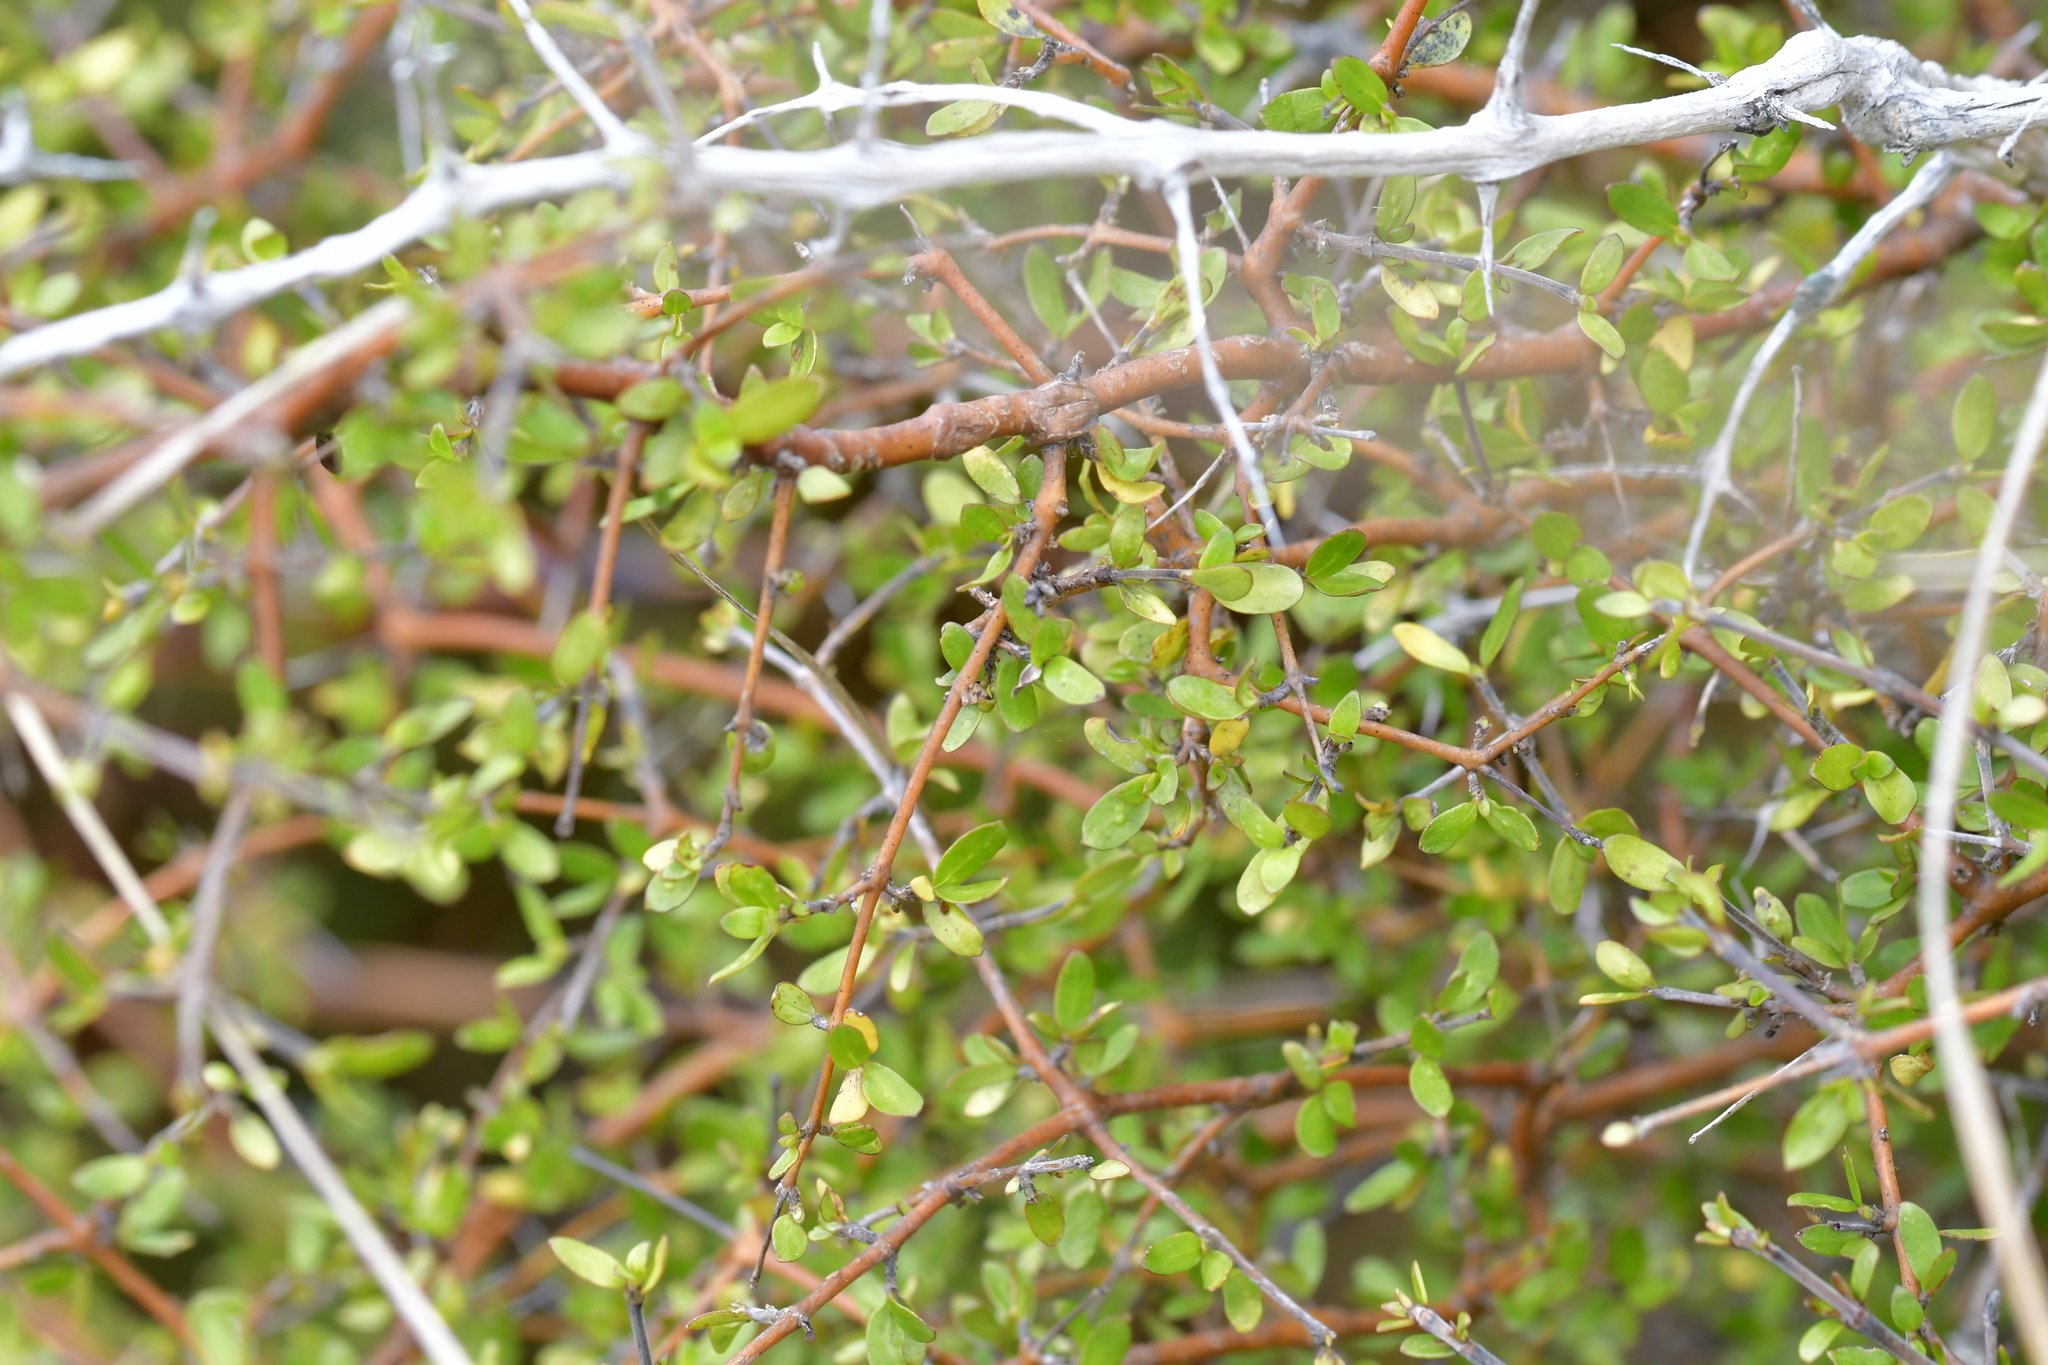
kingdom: Plantae
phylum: Tracheophyta
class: Magnoliopsida
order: Gentianales
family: Rubiaceae
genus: Coprosma
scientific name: Coprosma rigida
